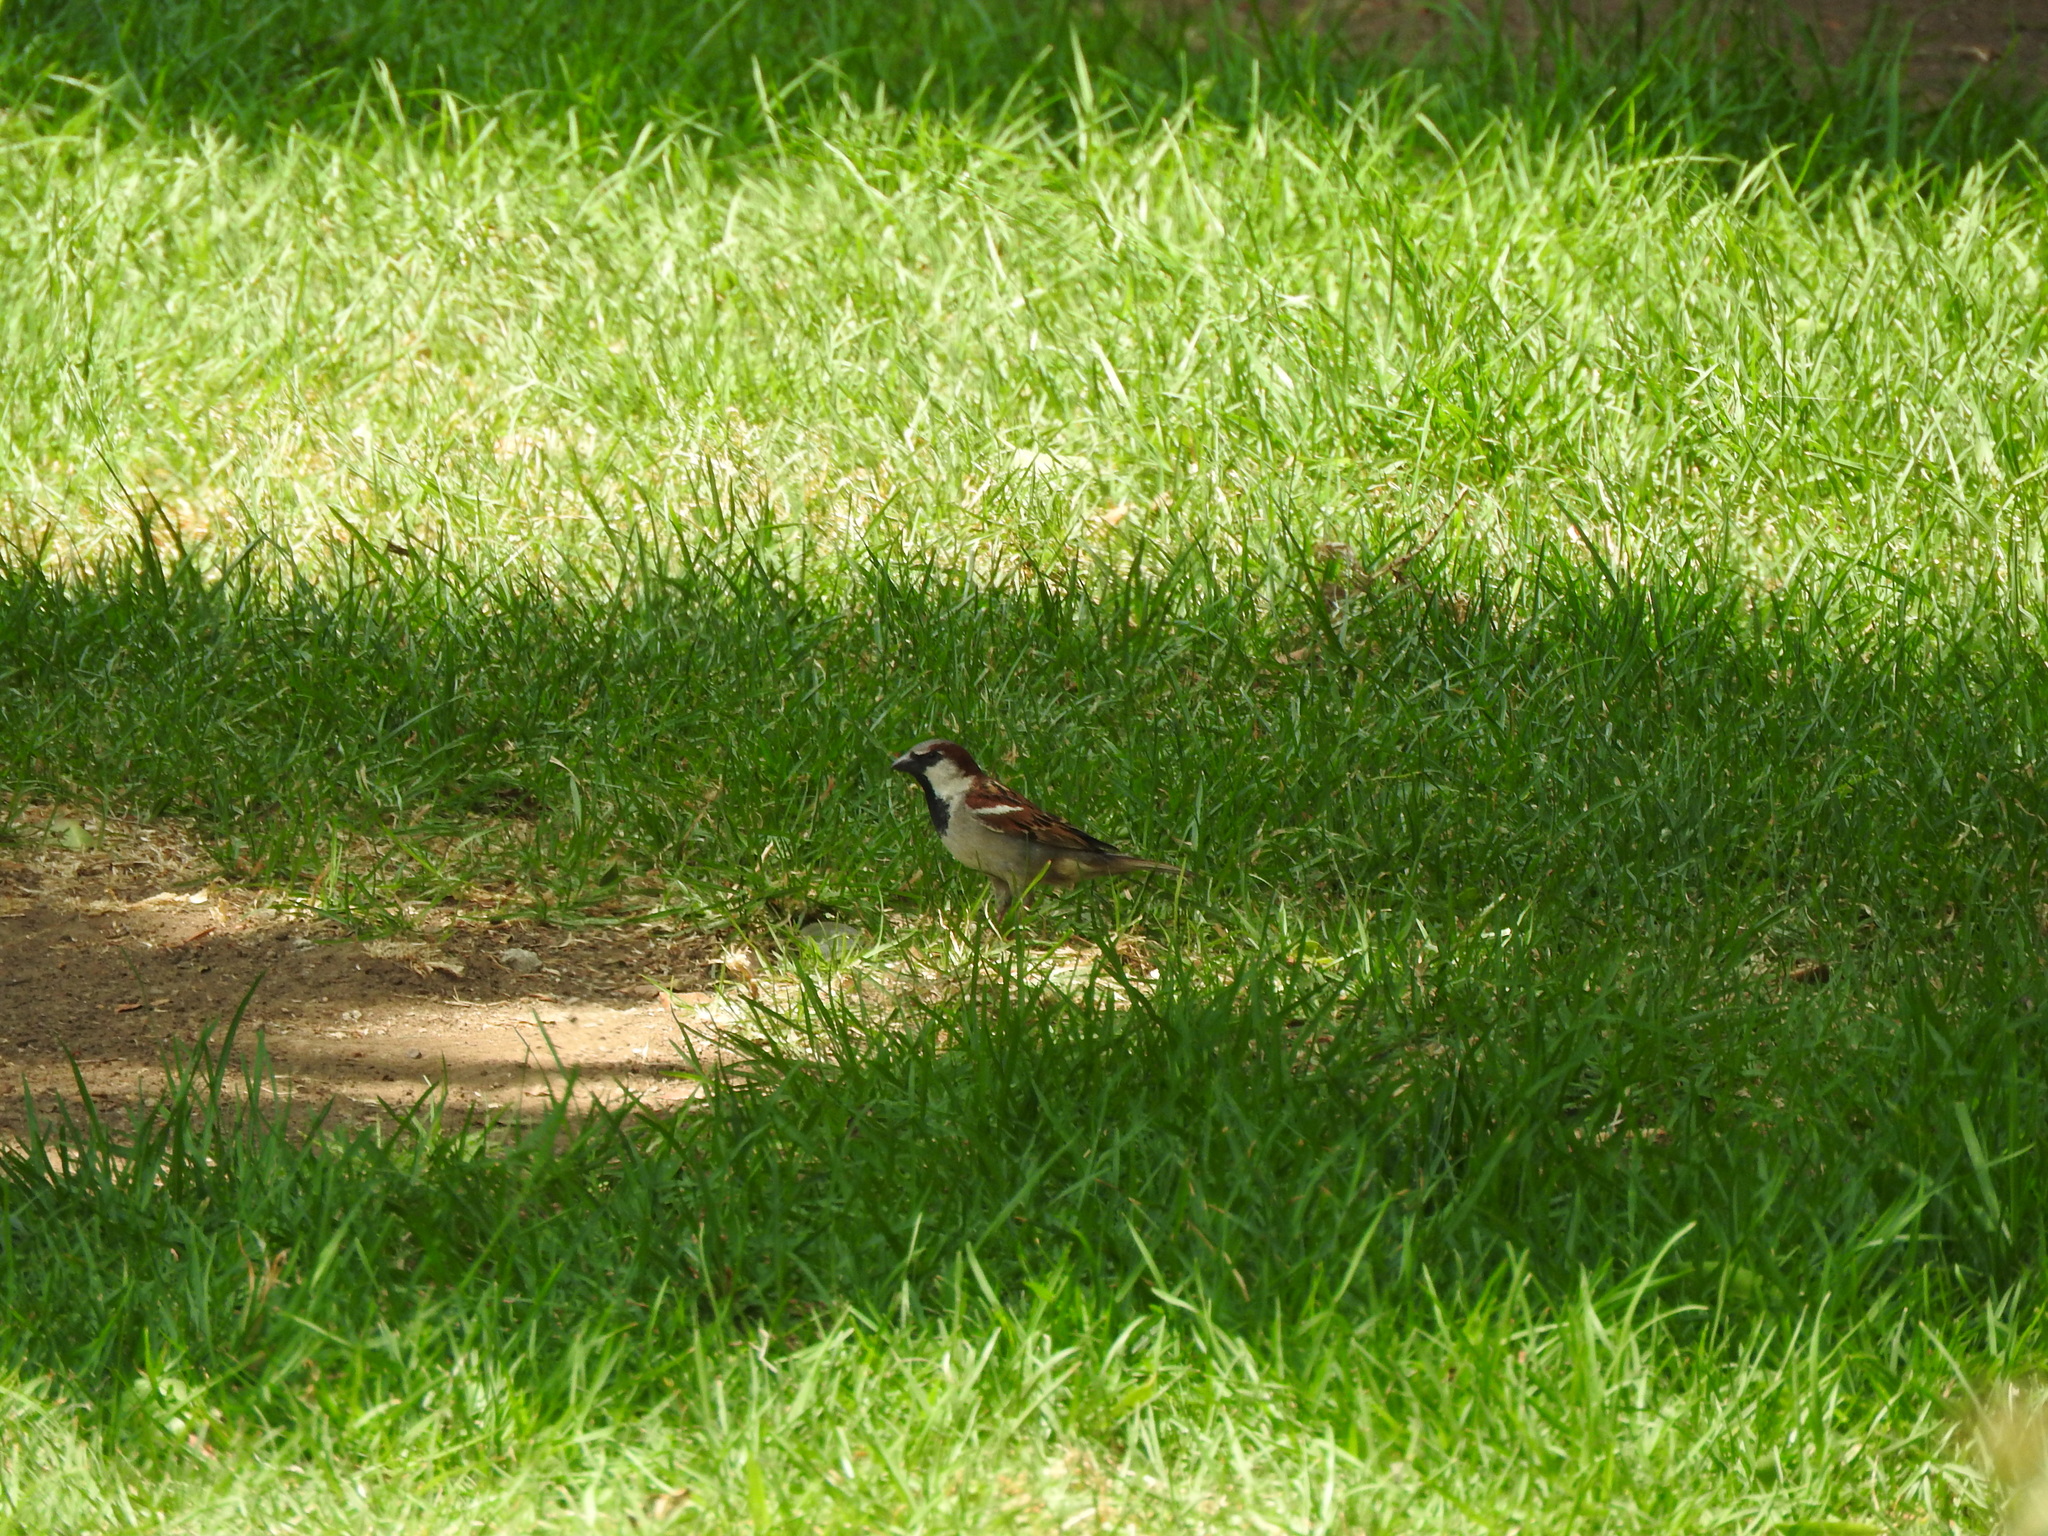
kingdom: Animalia
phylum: Chordata
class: Aves
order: Passeriformes
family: Passeridae
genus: Passer
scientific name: Passer domesticus
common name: House sparrow
